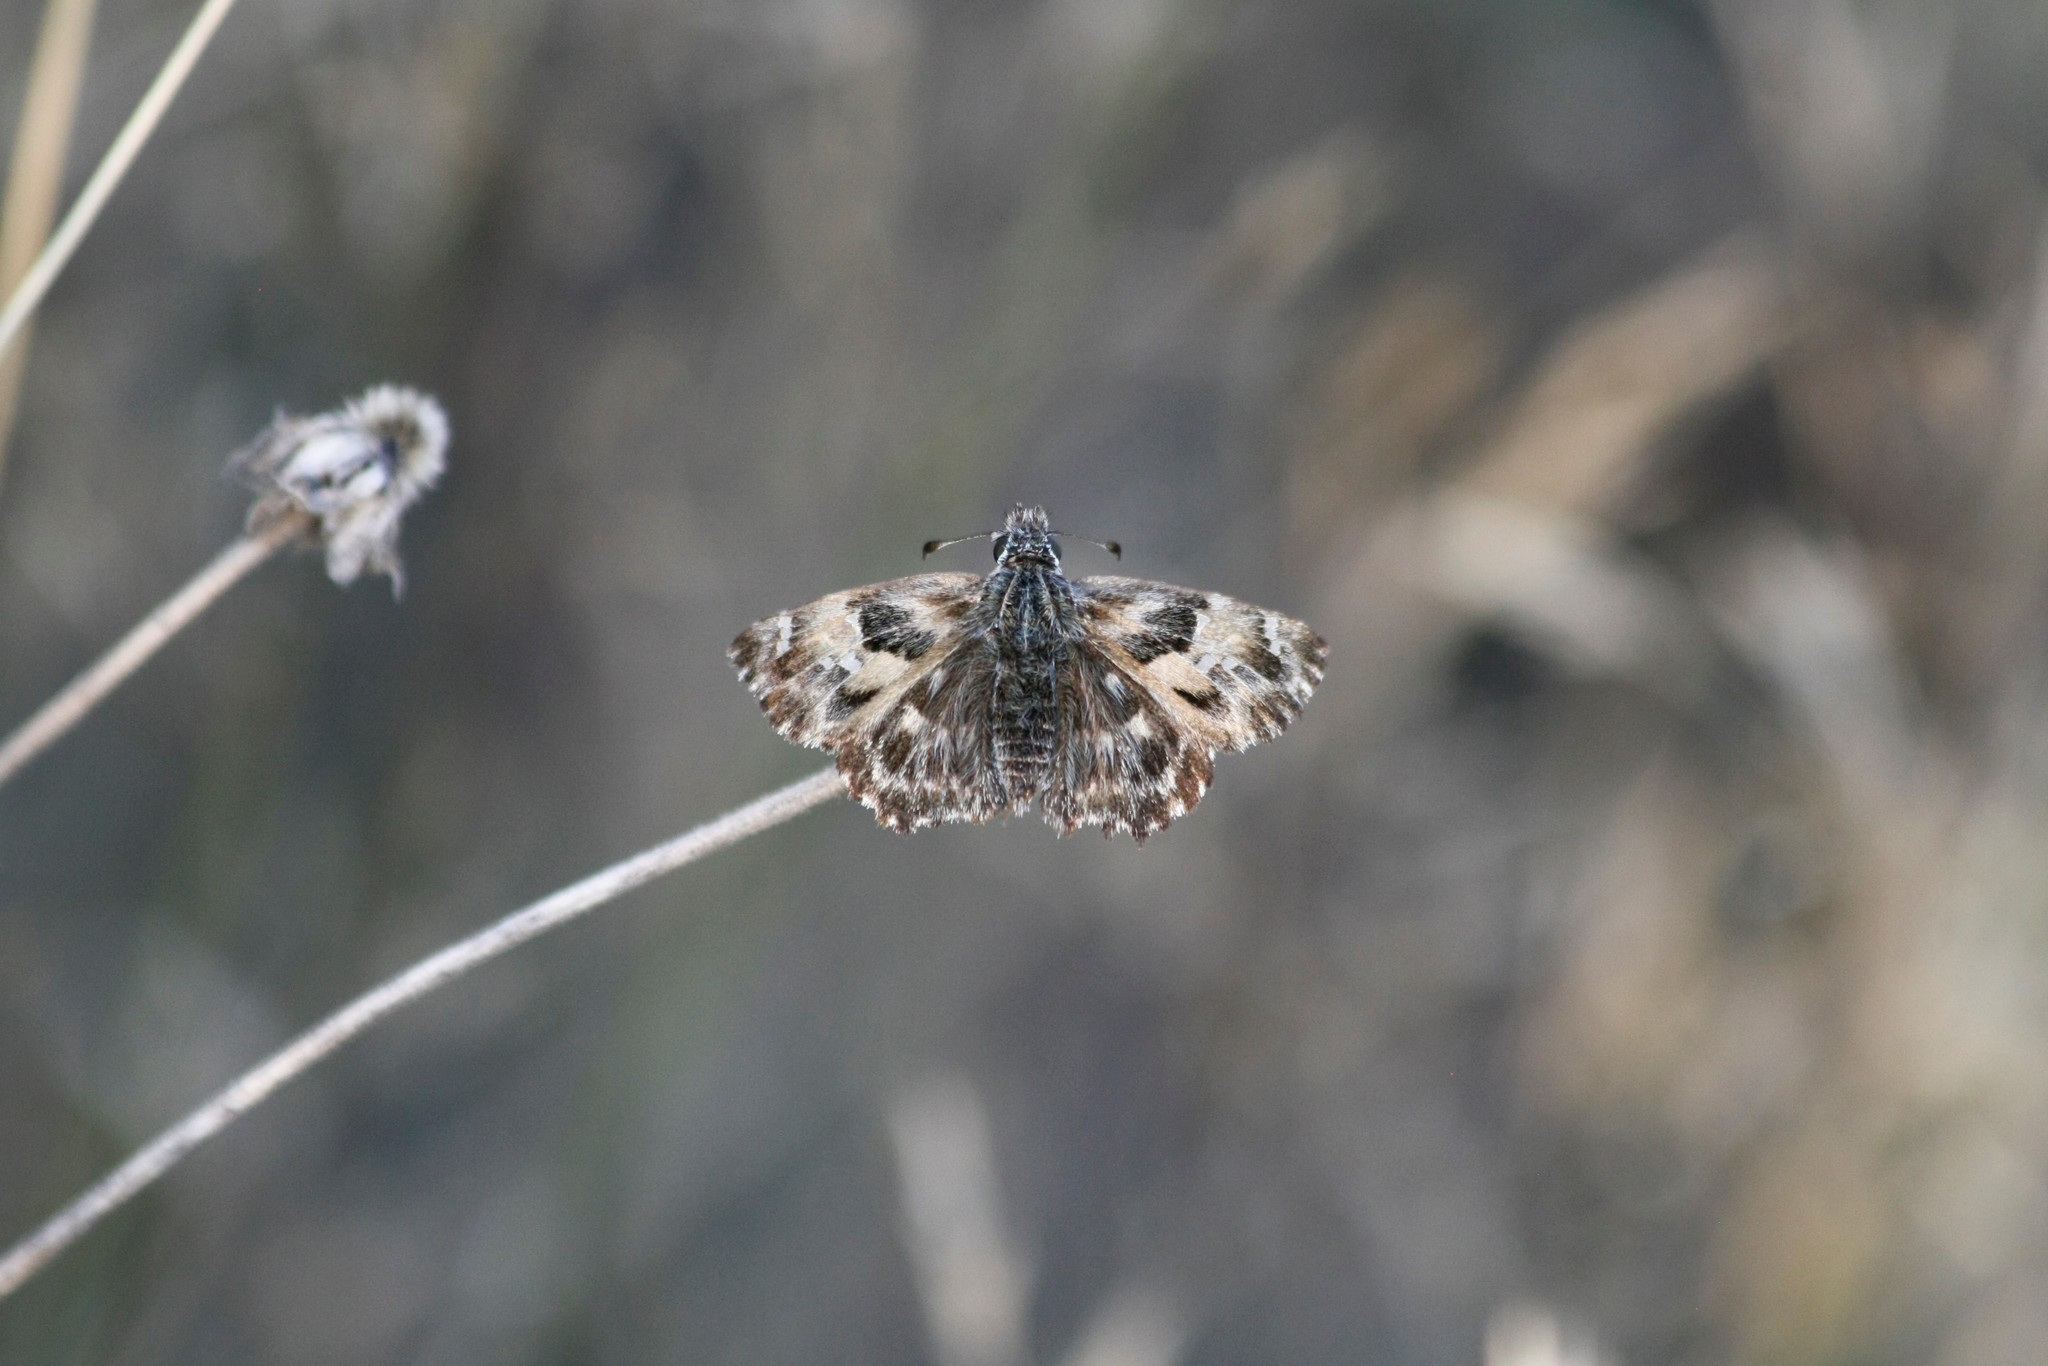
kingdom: Animalia
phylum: Arthropoda
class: Insecta
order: Lepidoptera
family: Hesperiidae
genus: Carcharodus
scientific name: Carcharodus alceae
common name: Mallow skipper
